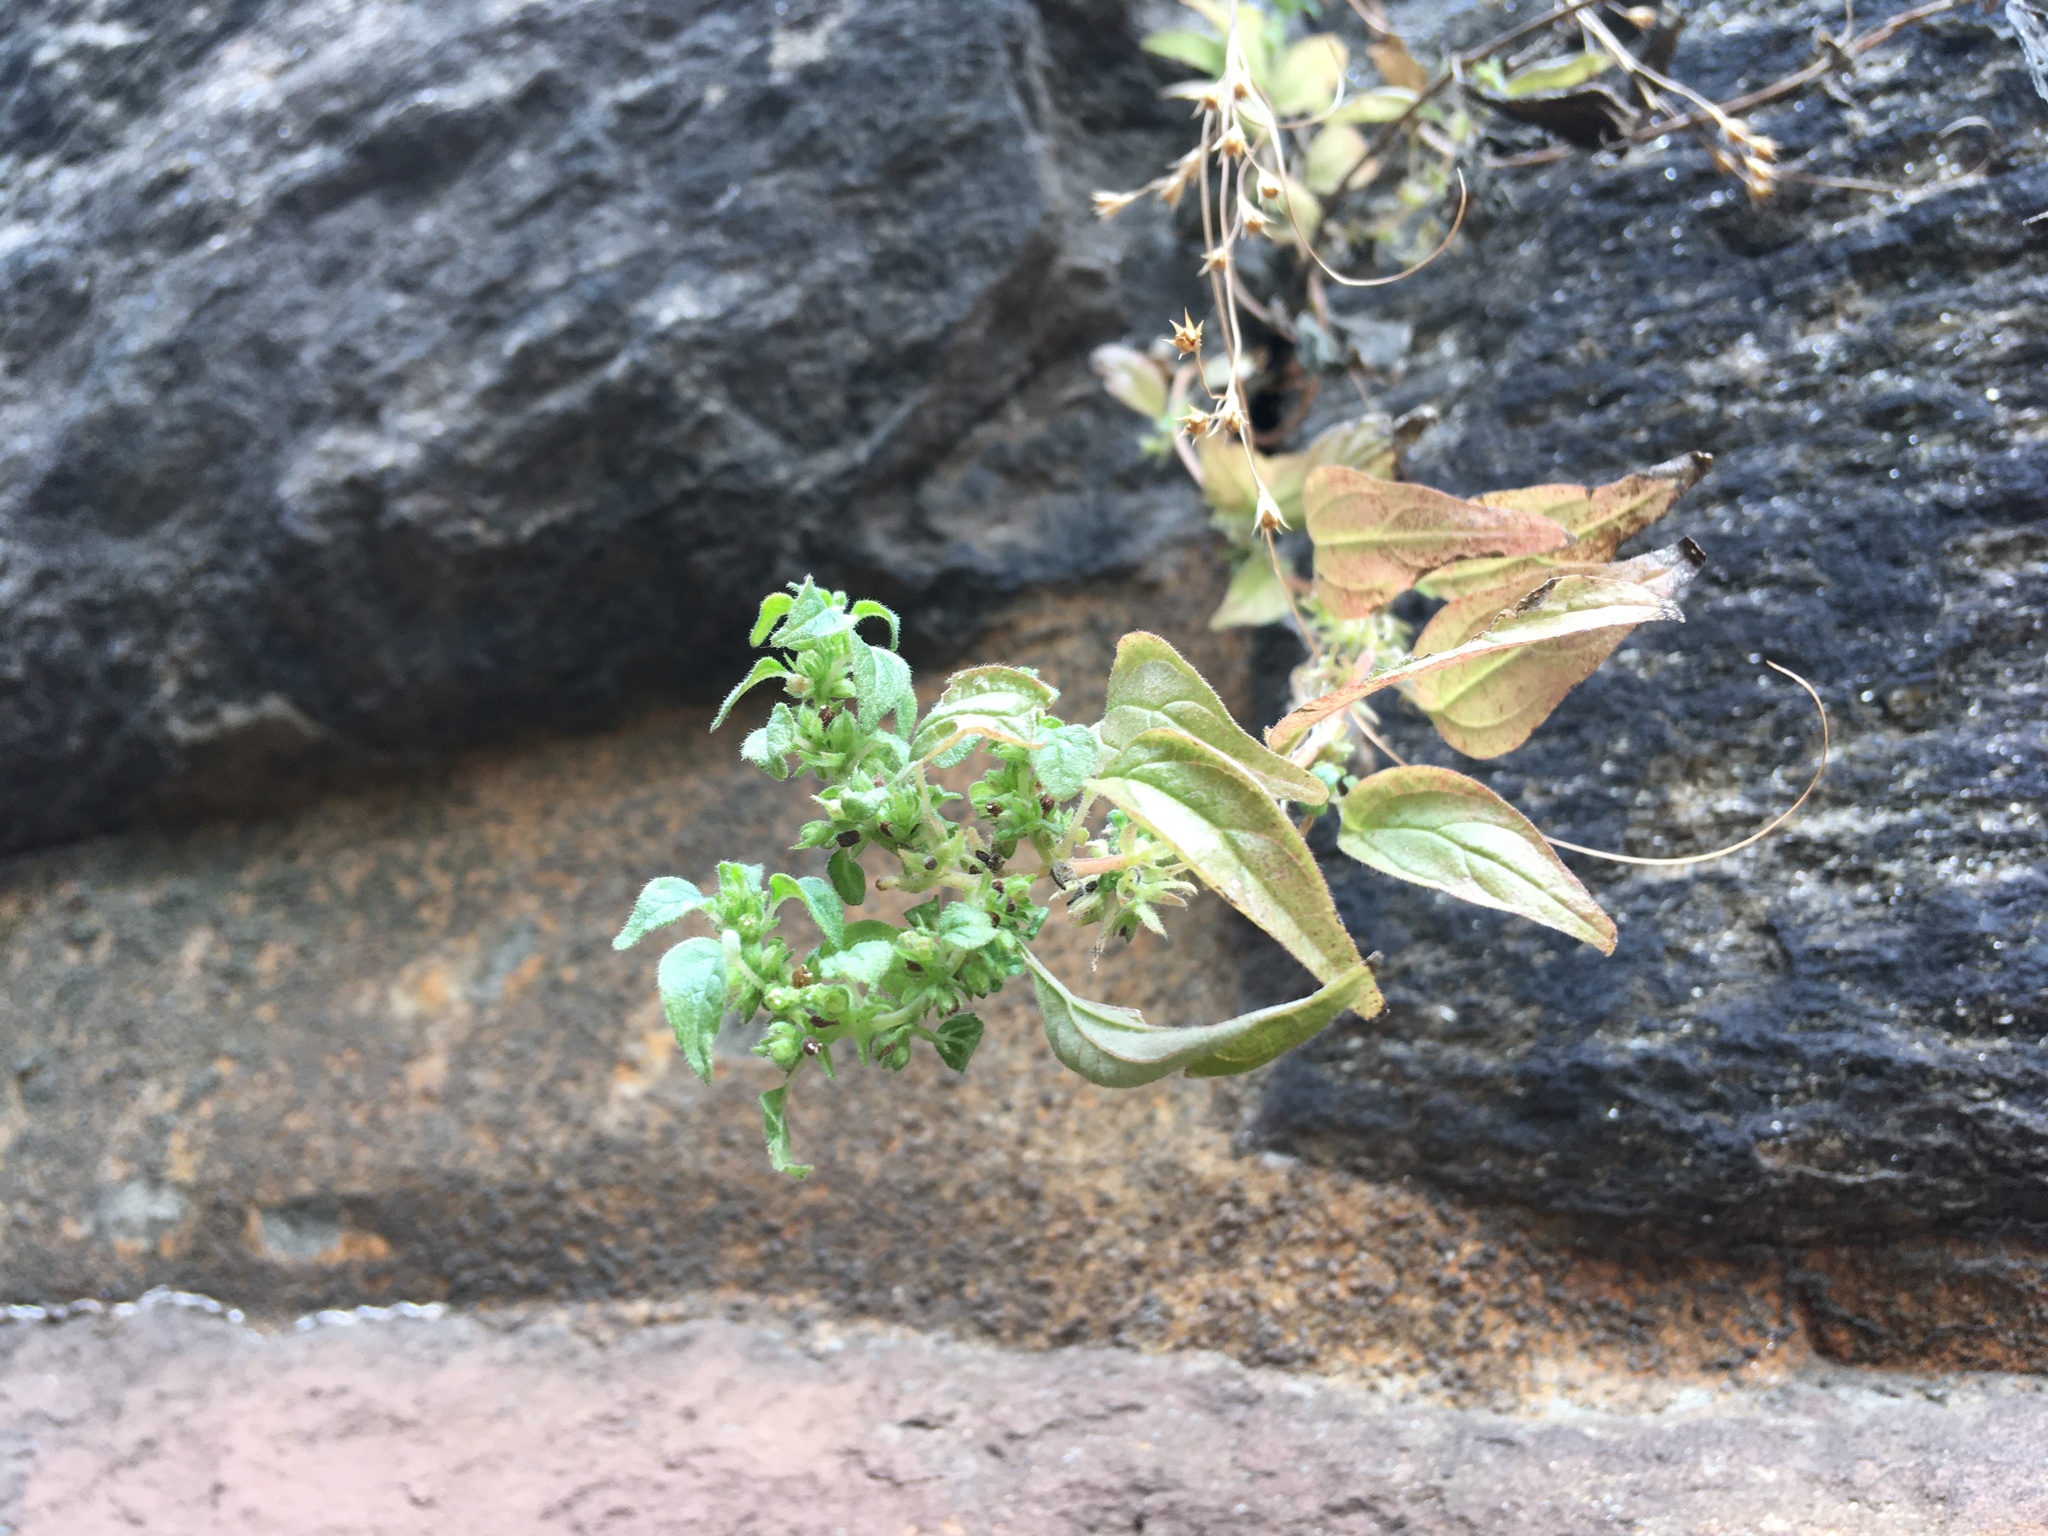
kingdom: Plantae
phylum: Tracheophyta
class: Magnoliopsida
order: Rosales
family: Urticaceae
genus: Parietaria
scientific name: Parietaria pensylvanica
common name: Pennsylvania pellitory
